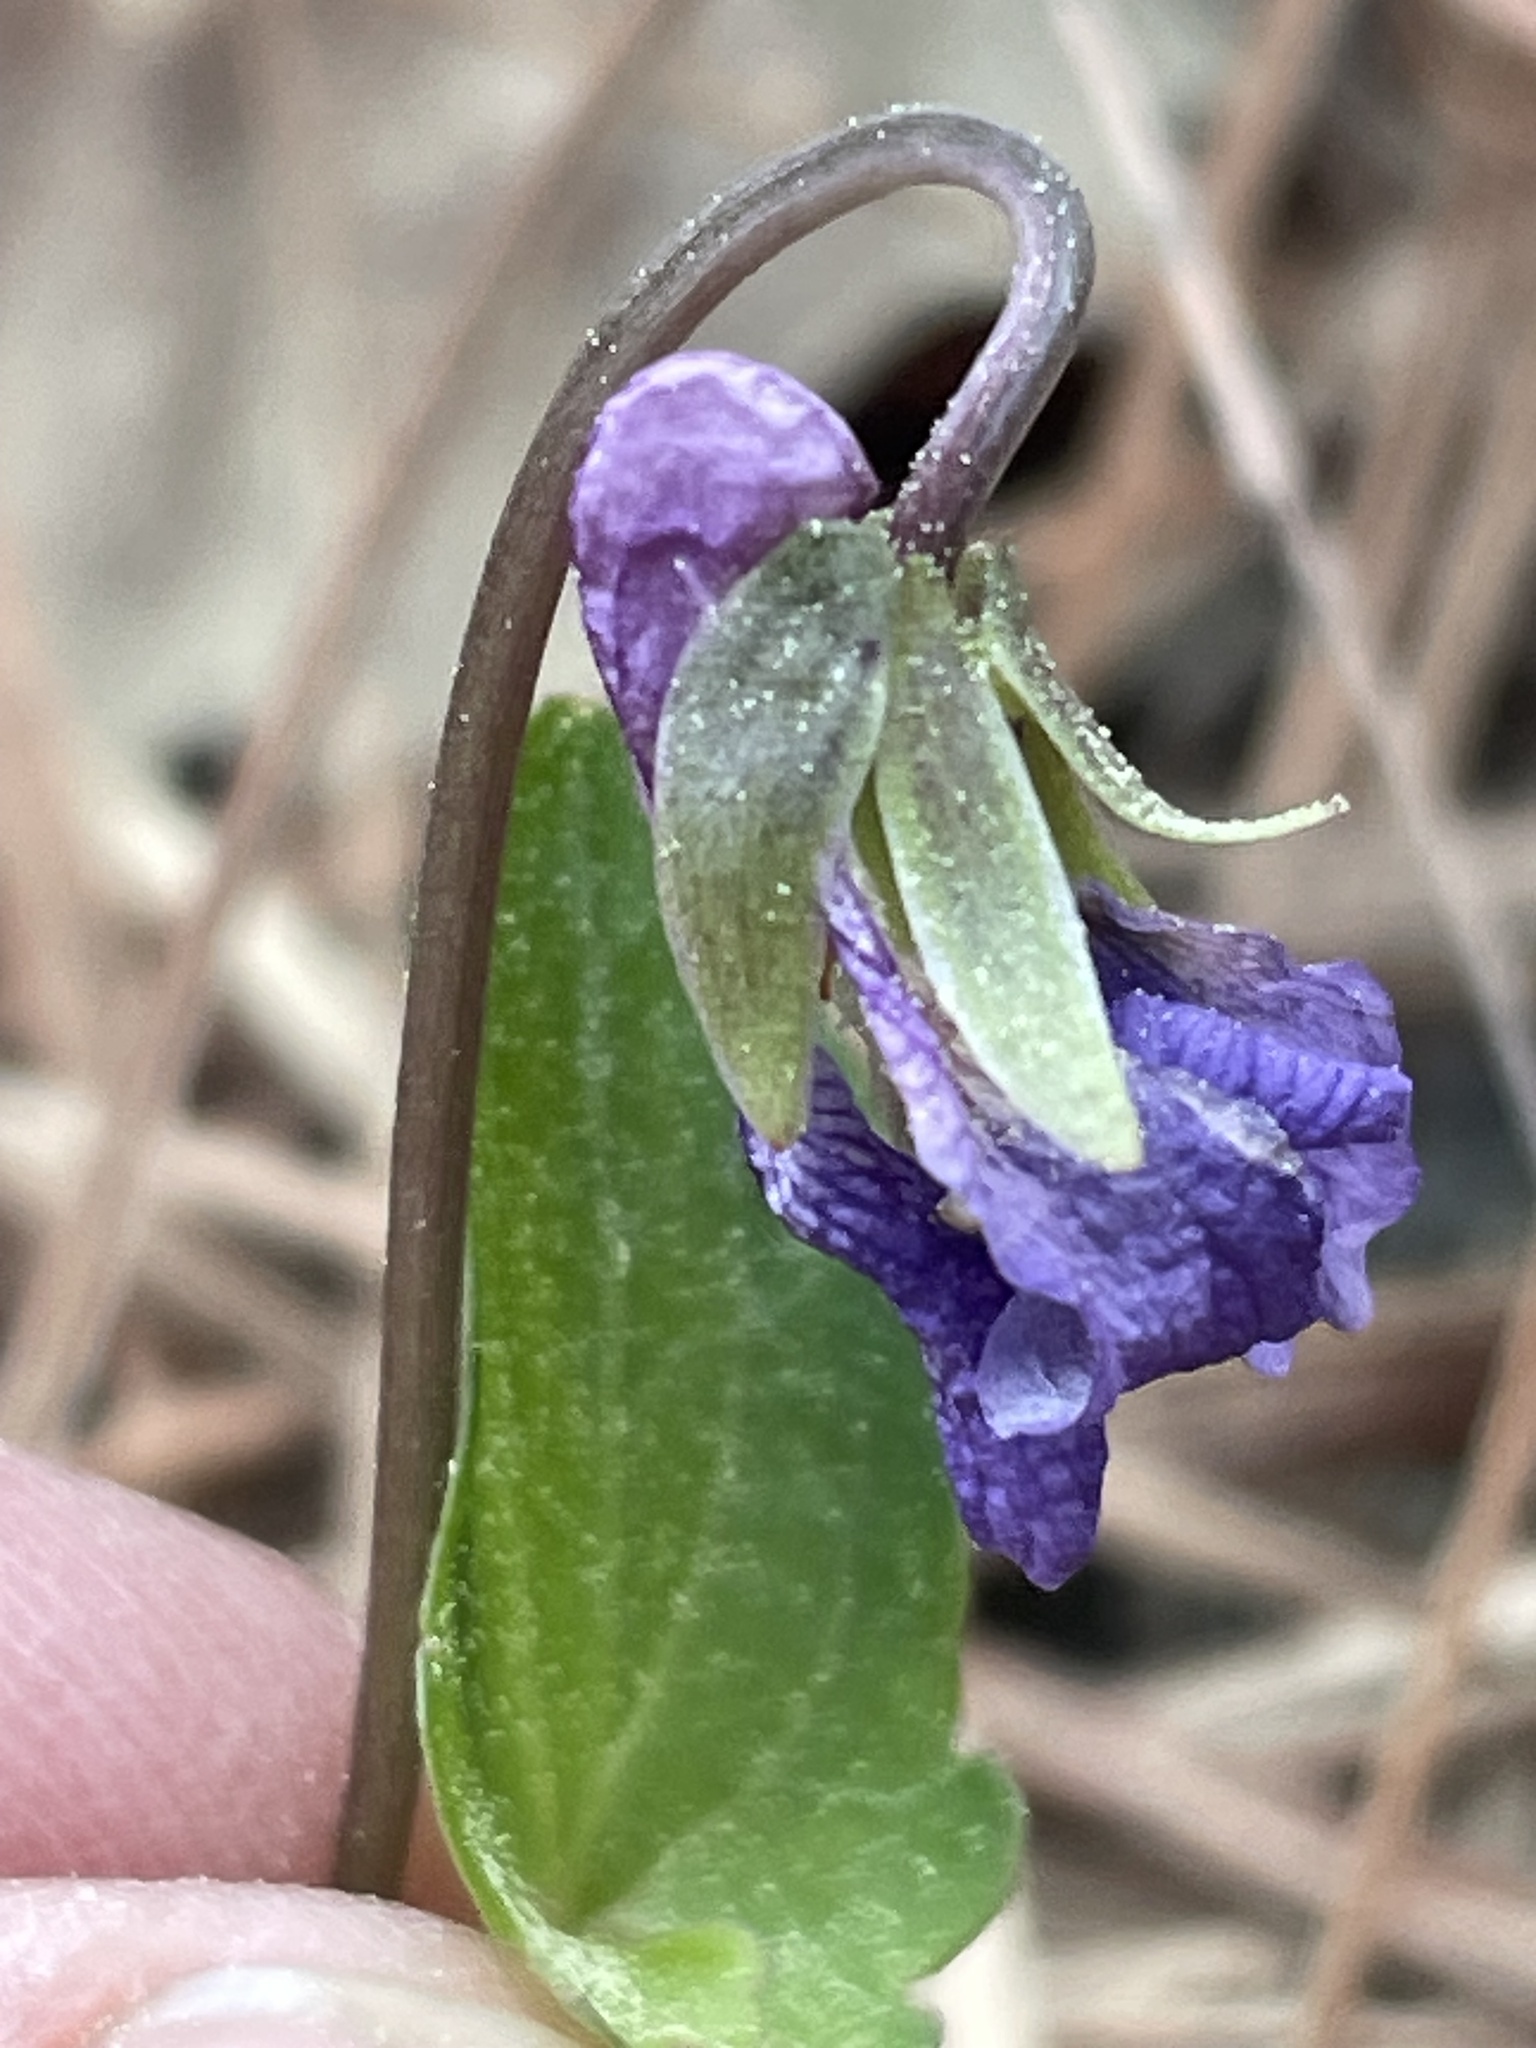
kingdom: Plantae
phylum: Tracheophyta
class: Magnoliopsida
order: Malpighiales
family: Violaceae
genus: Viola
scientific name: Viola emarginata
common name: Triangle-leaved violet
